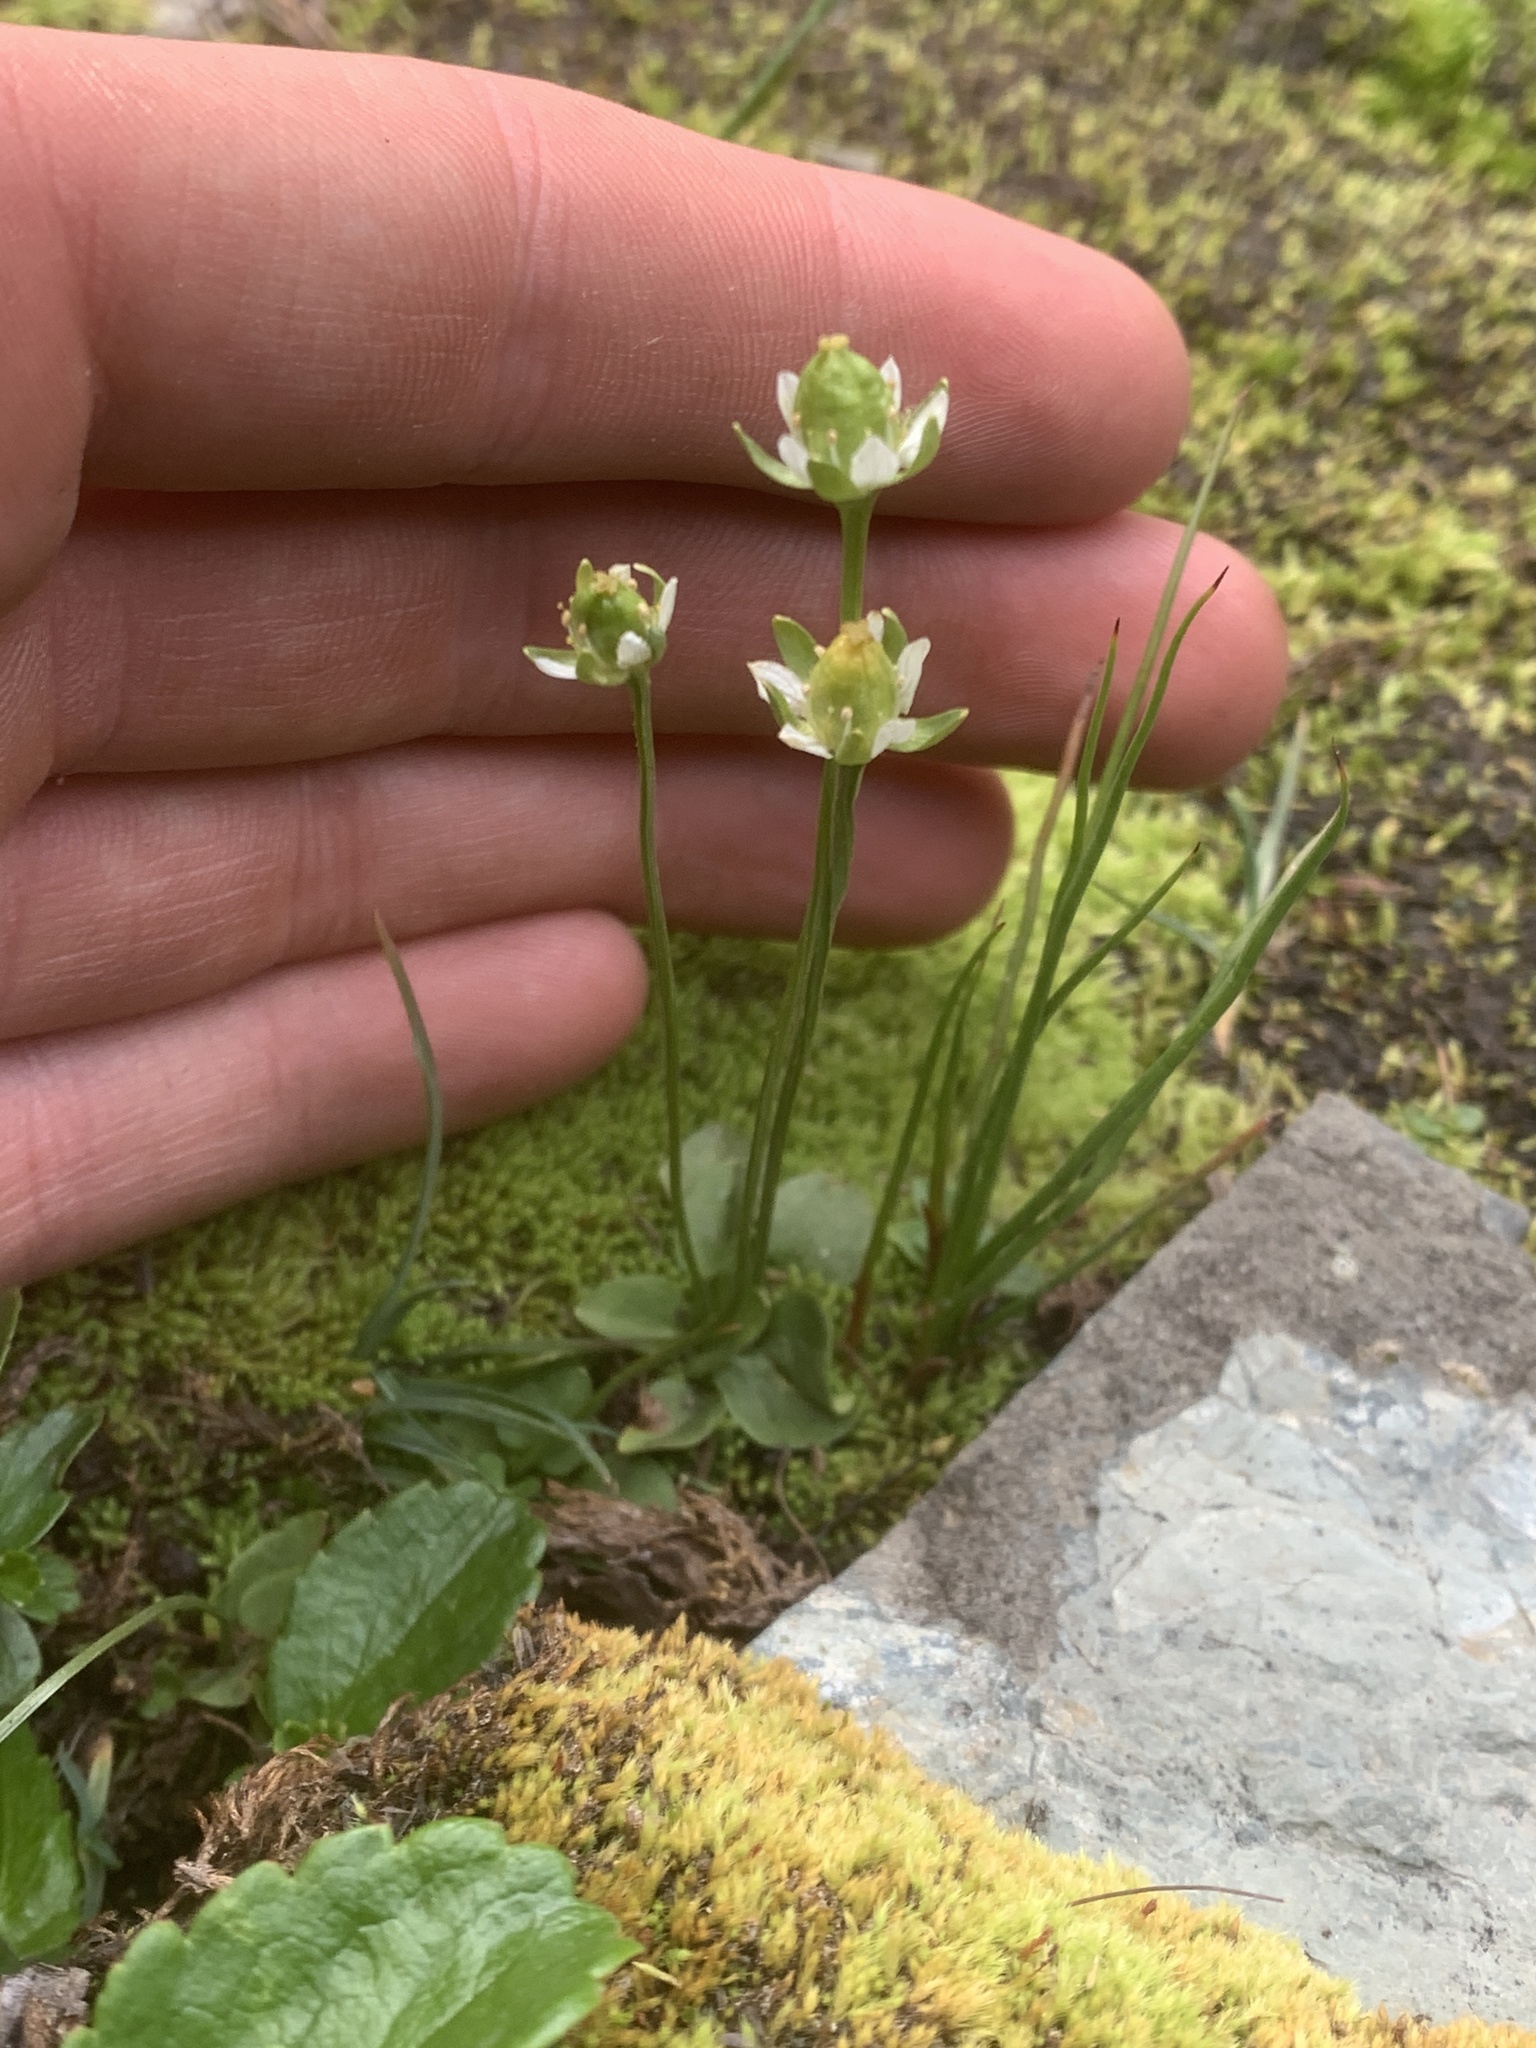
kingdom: Plantae
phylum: Tracheophyta
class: Magnoliopsida
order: Celastrales
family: Parnassiaceae
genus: Parnassia
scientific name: Parnassia kotzebuei
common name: Kotzebue's grass-of-parnassus
